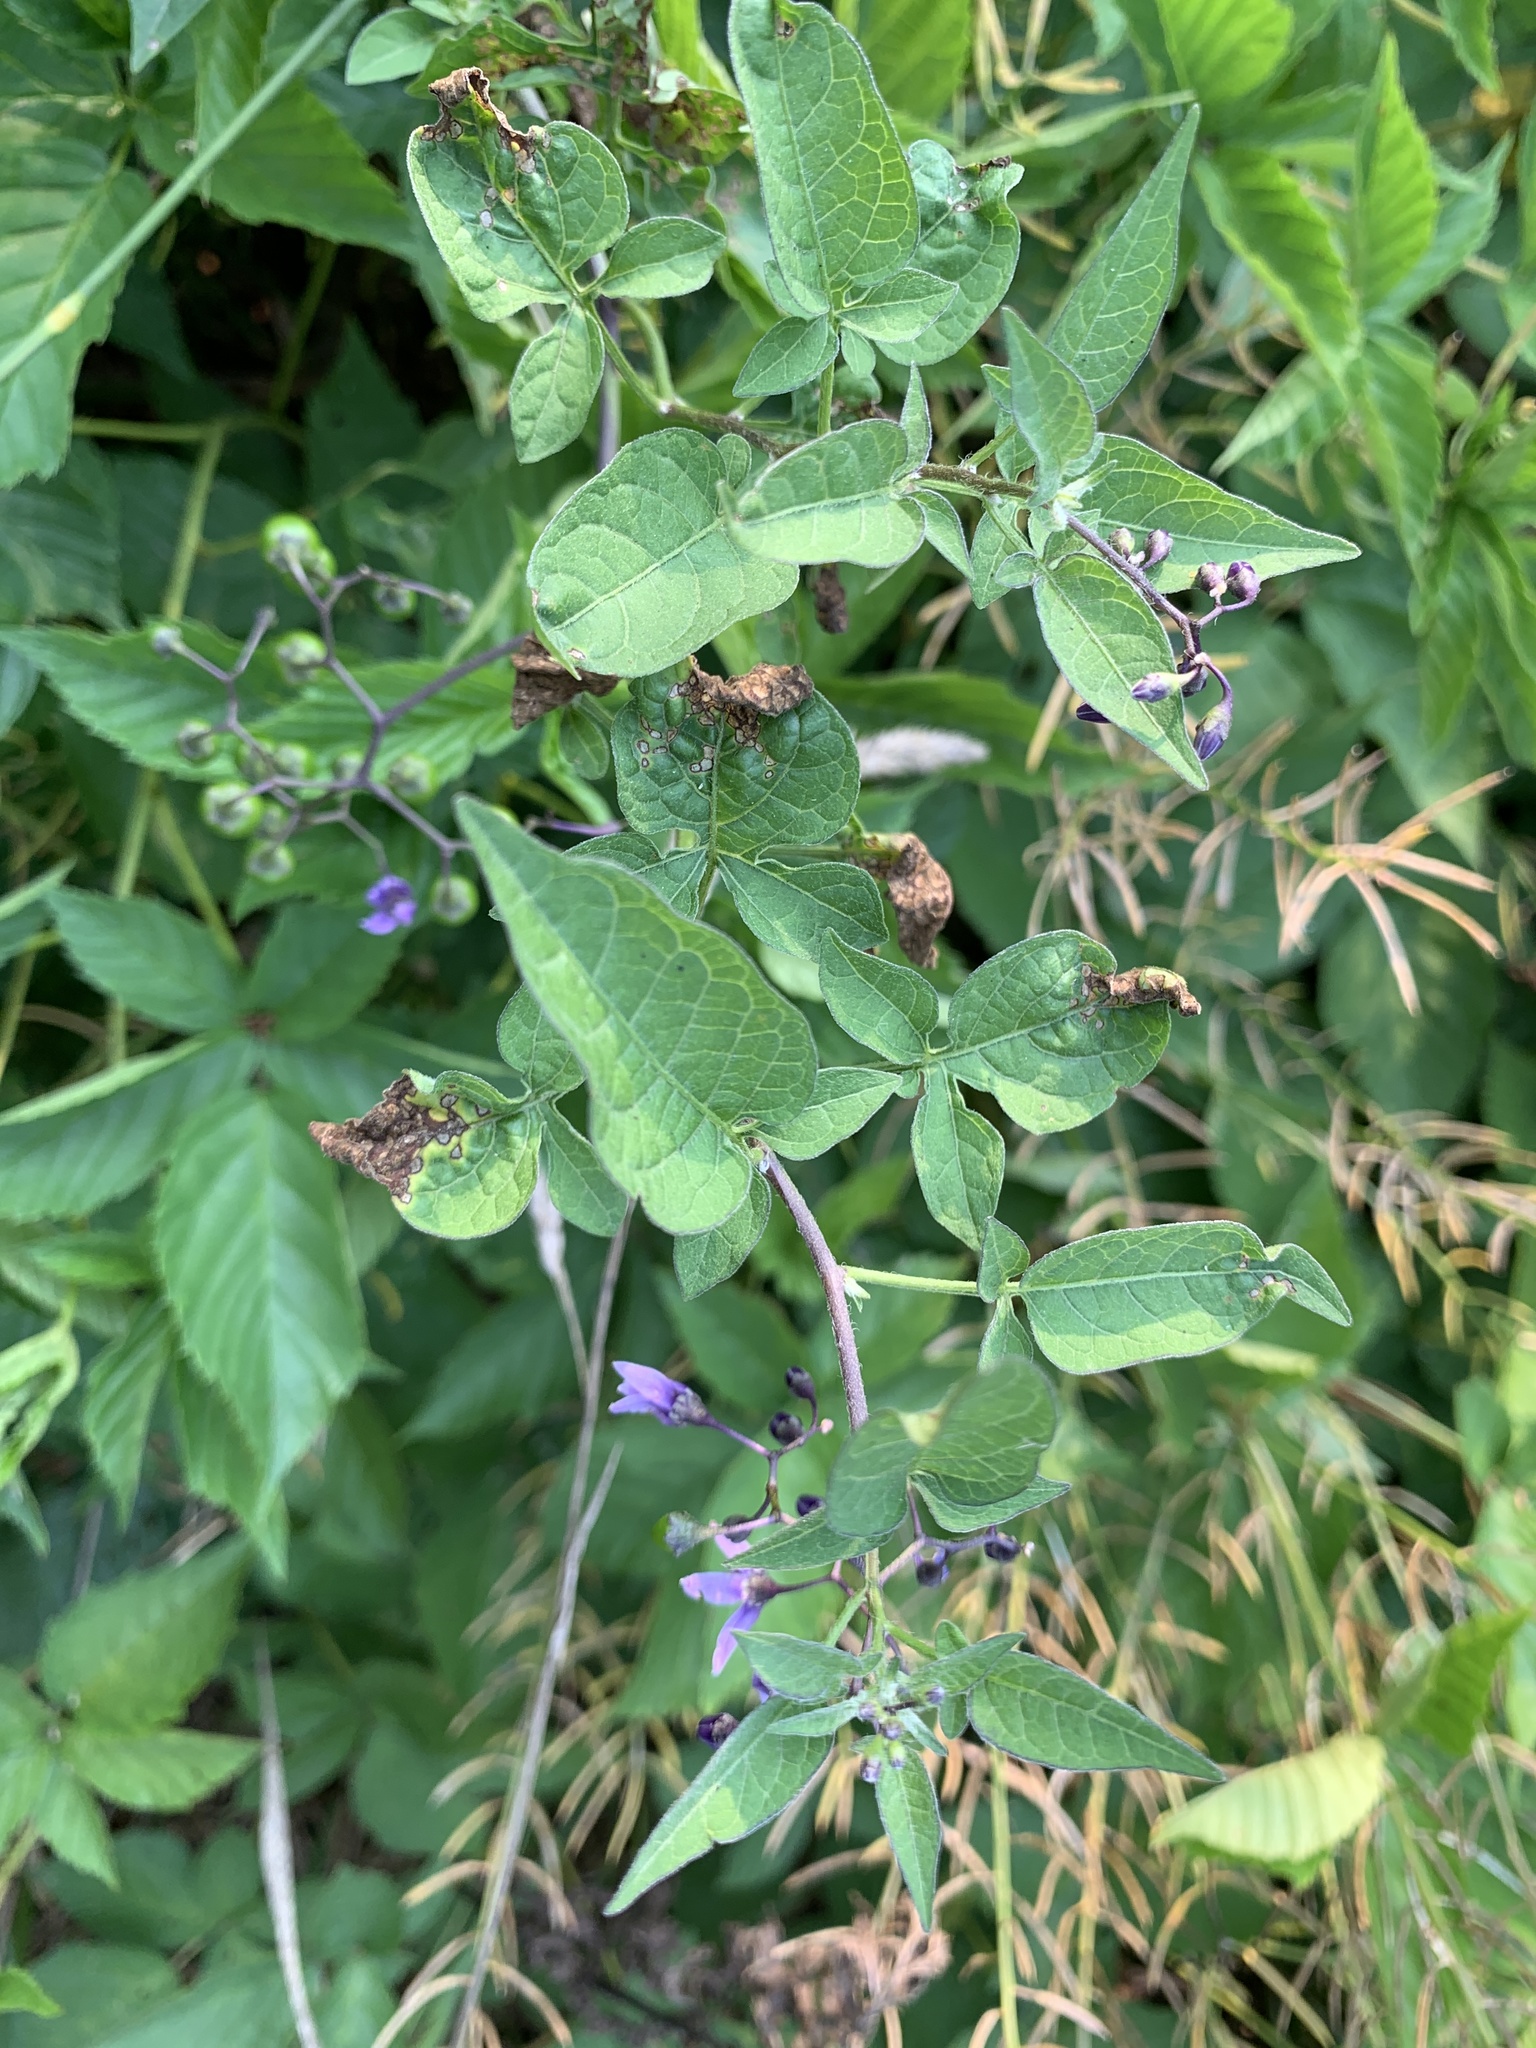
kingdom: Plantae
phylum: Tracheophyta
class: Magnoliopsida
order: Solanales
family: Solanaceae
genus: Solanum
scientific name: Solanum dulcamara
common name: Climbing nightshade
